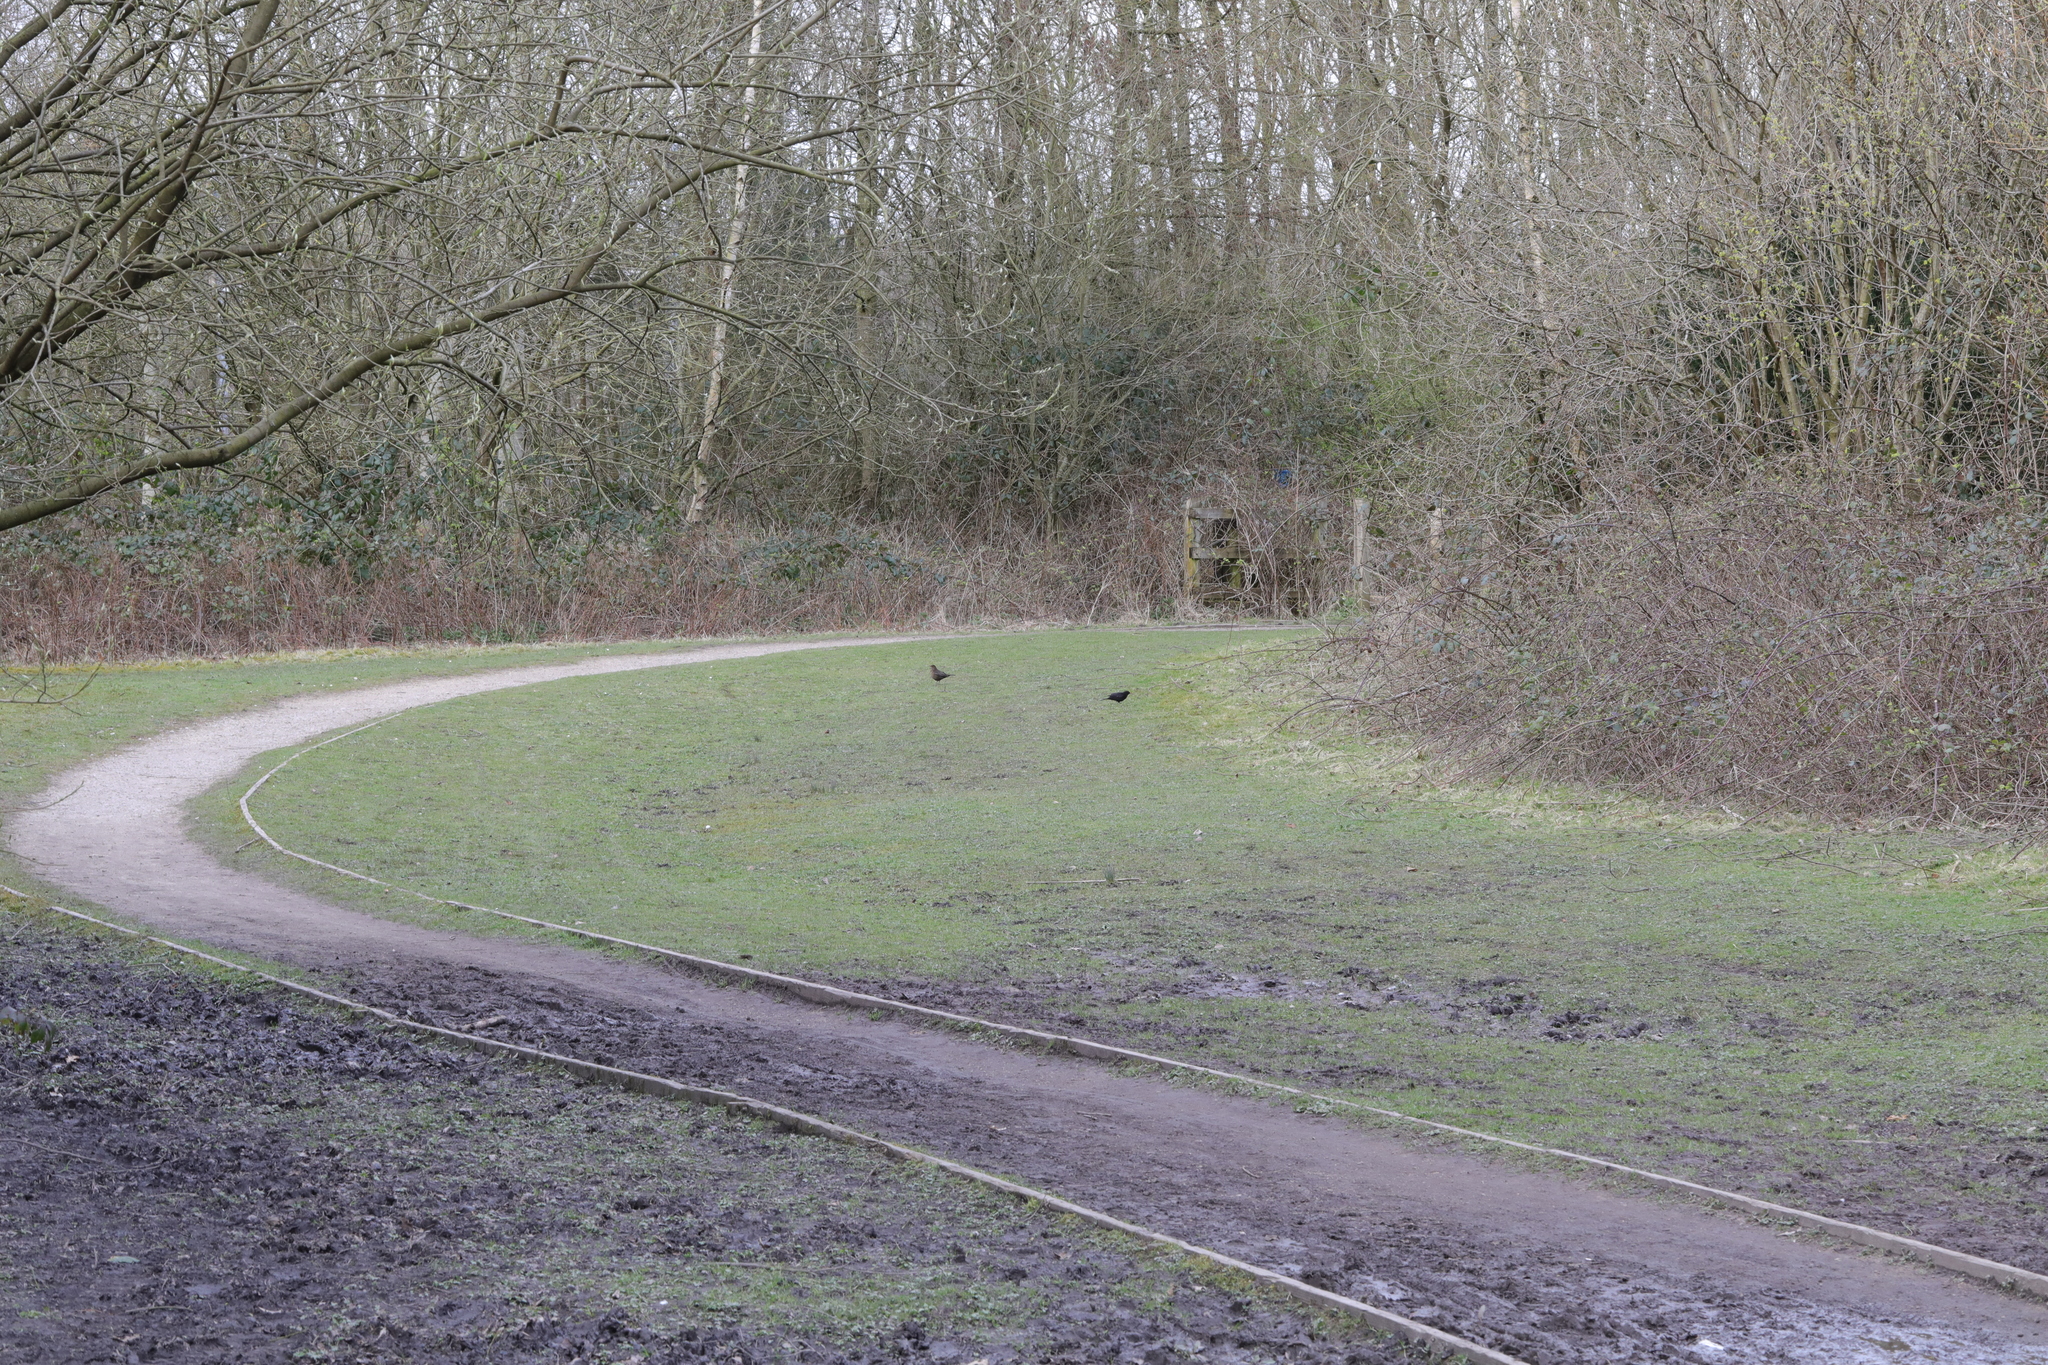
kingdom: Animalia
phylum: Chordata
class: Aves
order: Passeriformes
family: Turdidae
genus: Turdus
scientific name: Turdus merula
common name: Common blackbird
